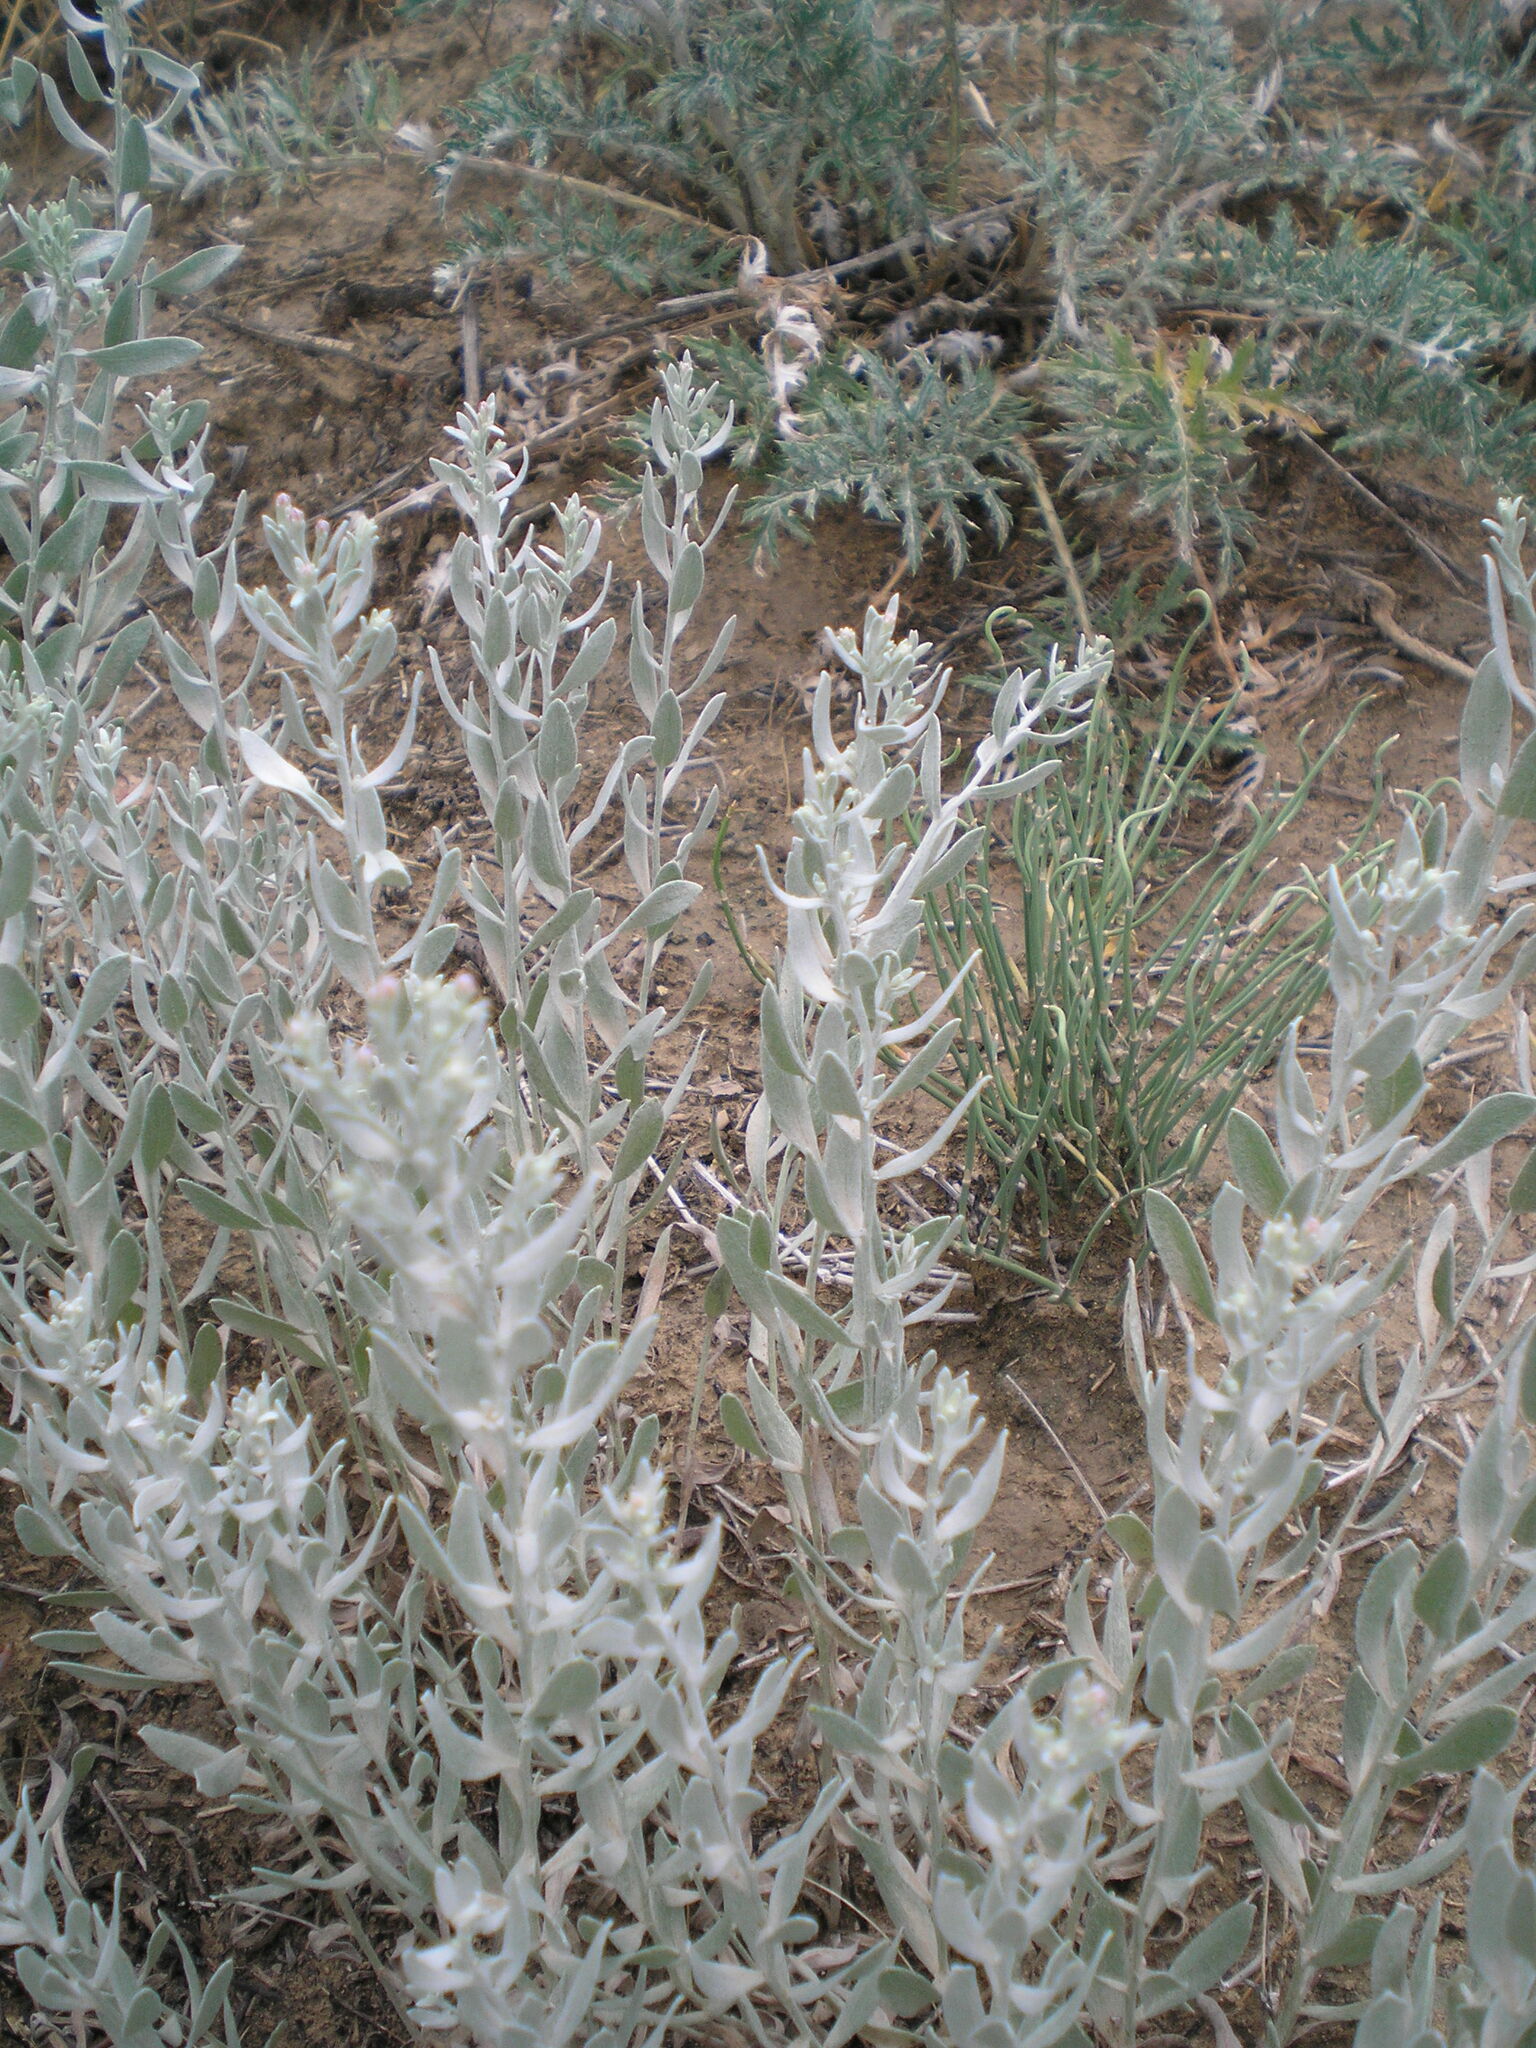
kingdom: Plantae
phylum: Tracheophyta
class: Magnoliopsida
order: Asterales
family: Asteraceae
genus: Galatella
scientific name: Galatella villosa
